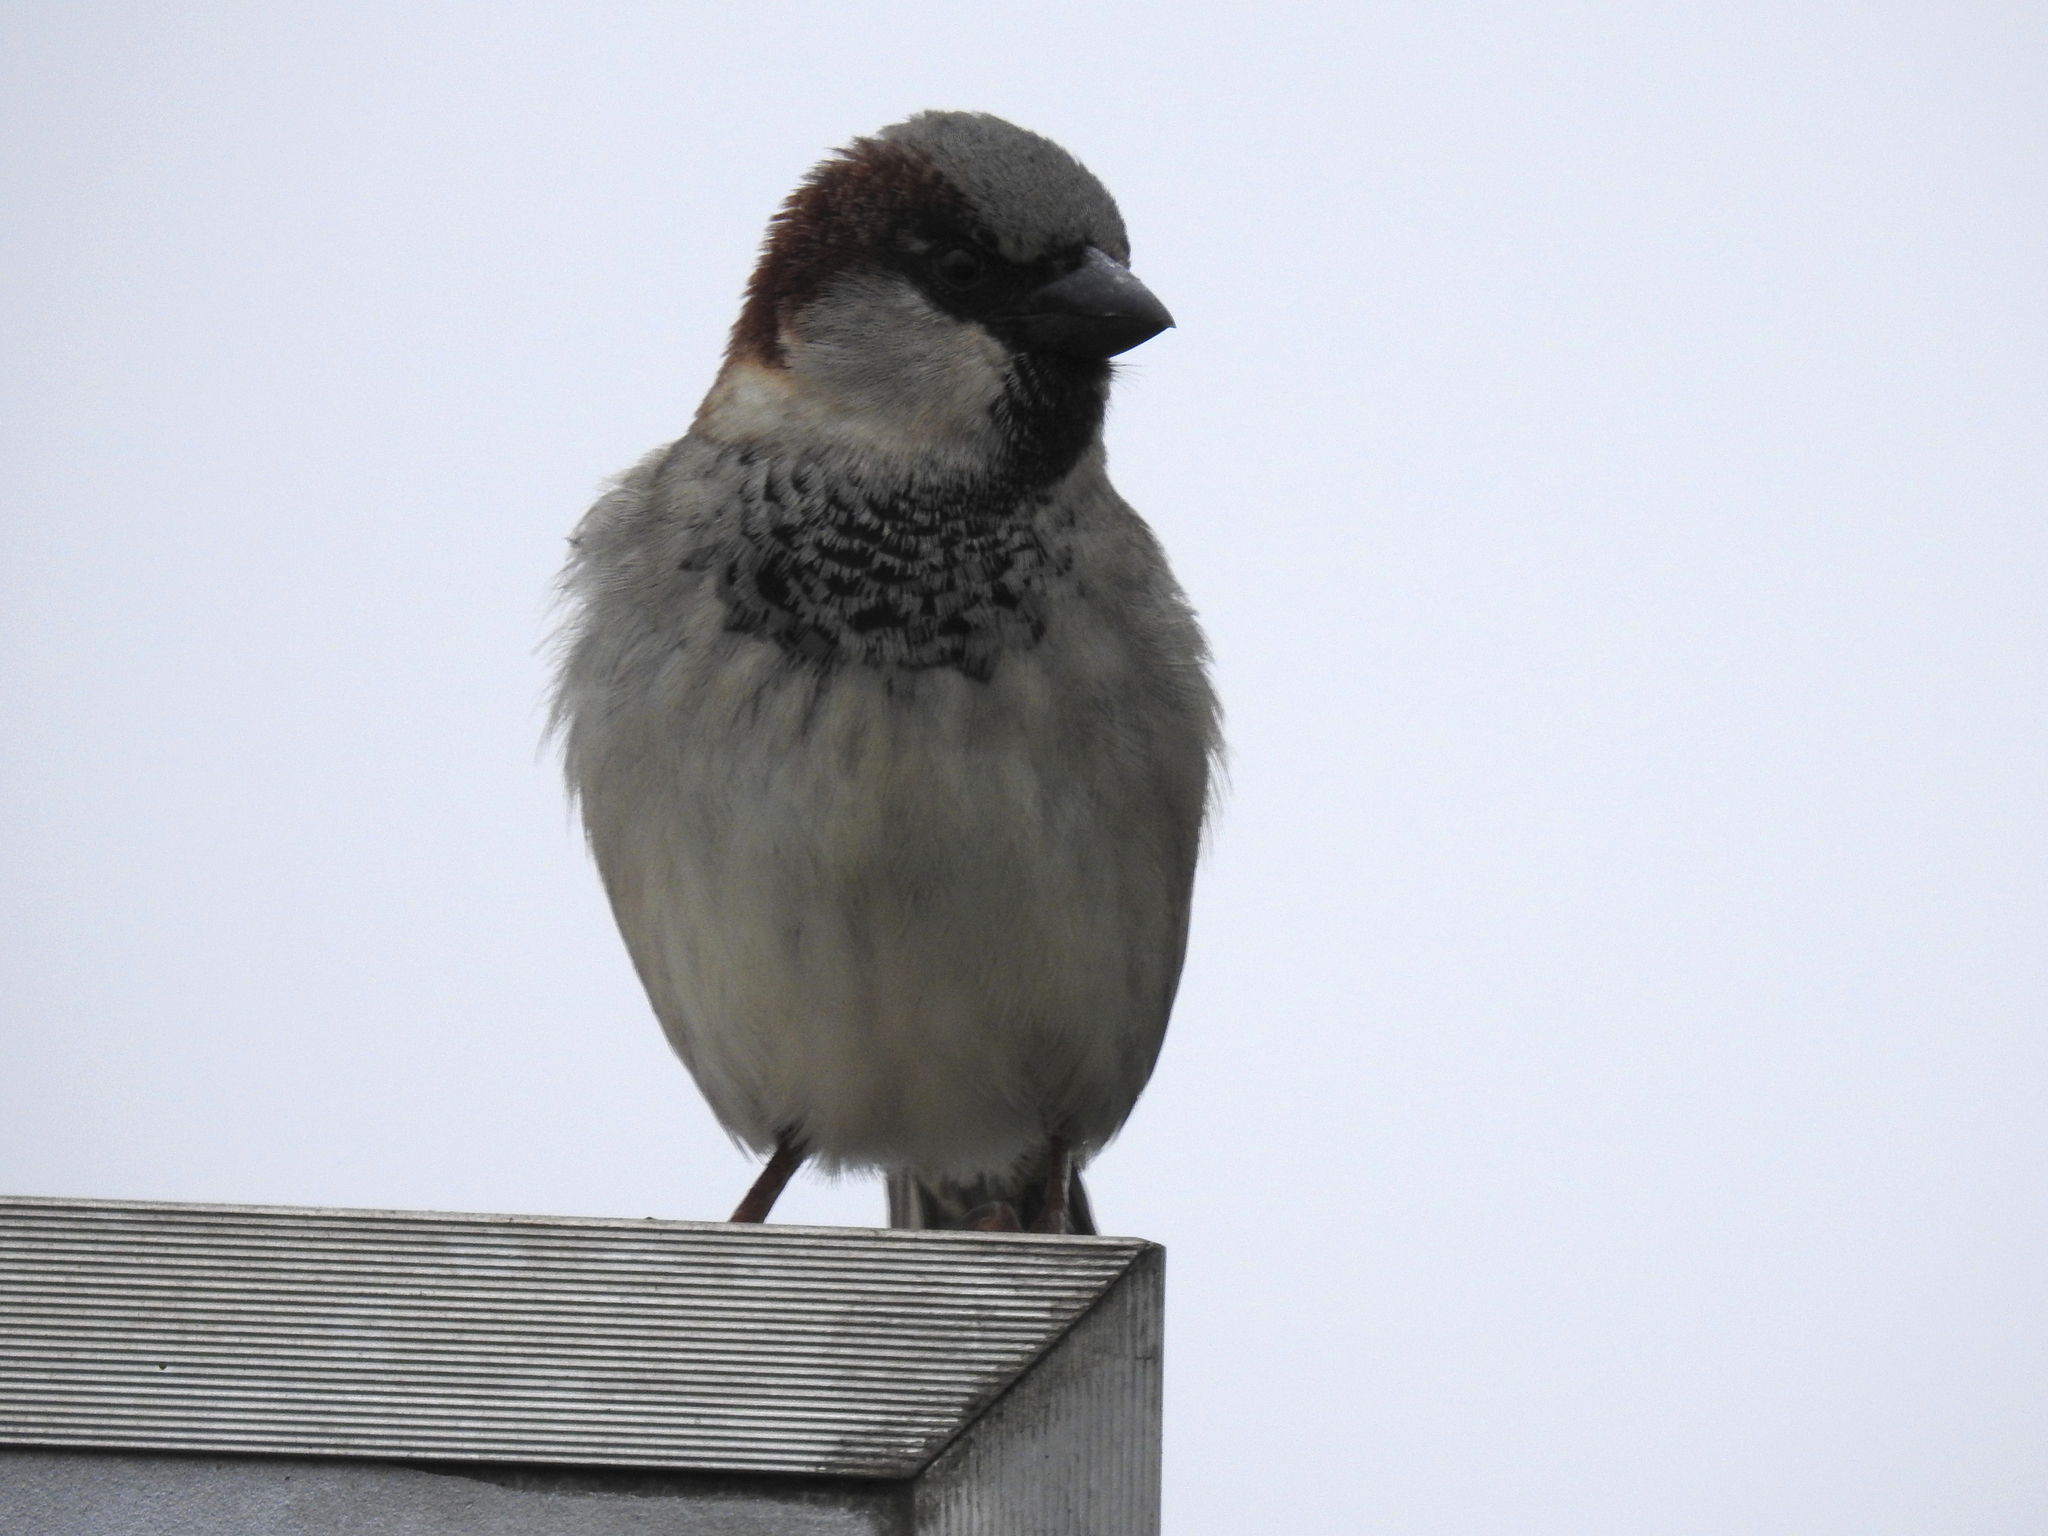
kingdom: Animalia
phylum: Chordata
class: Aves
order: Passeriformes
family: Passeridae
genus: Passer
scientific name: Passer domesticus
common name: House sparrow
